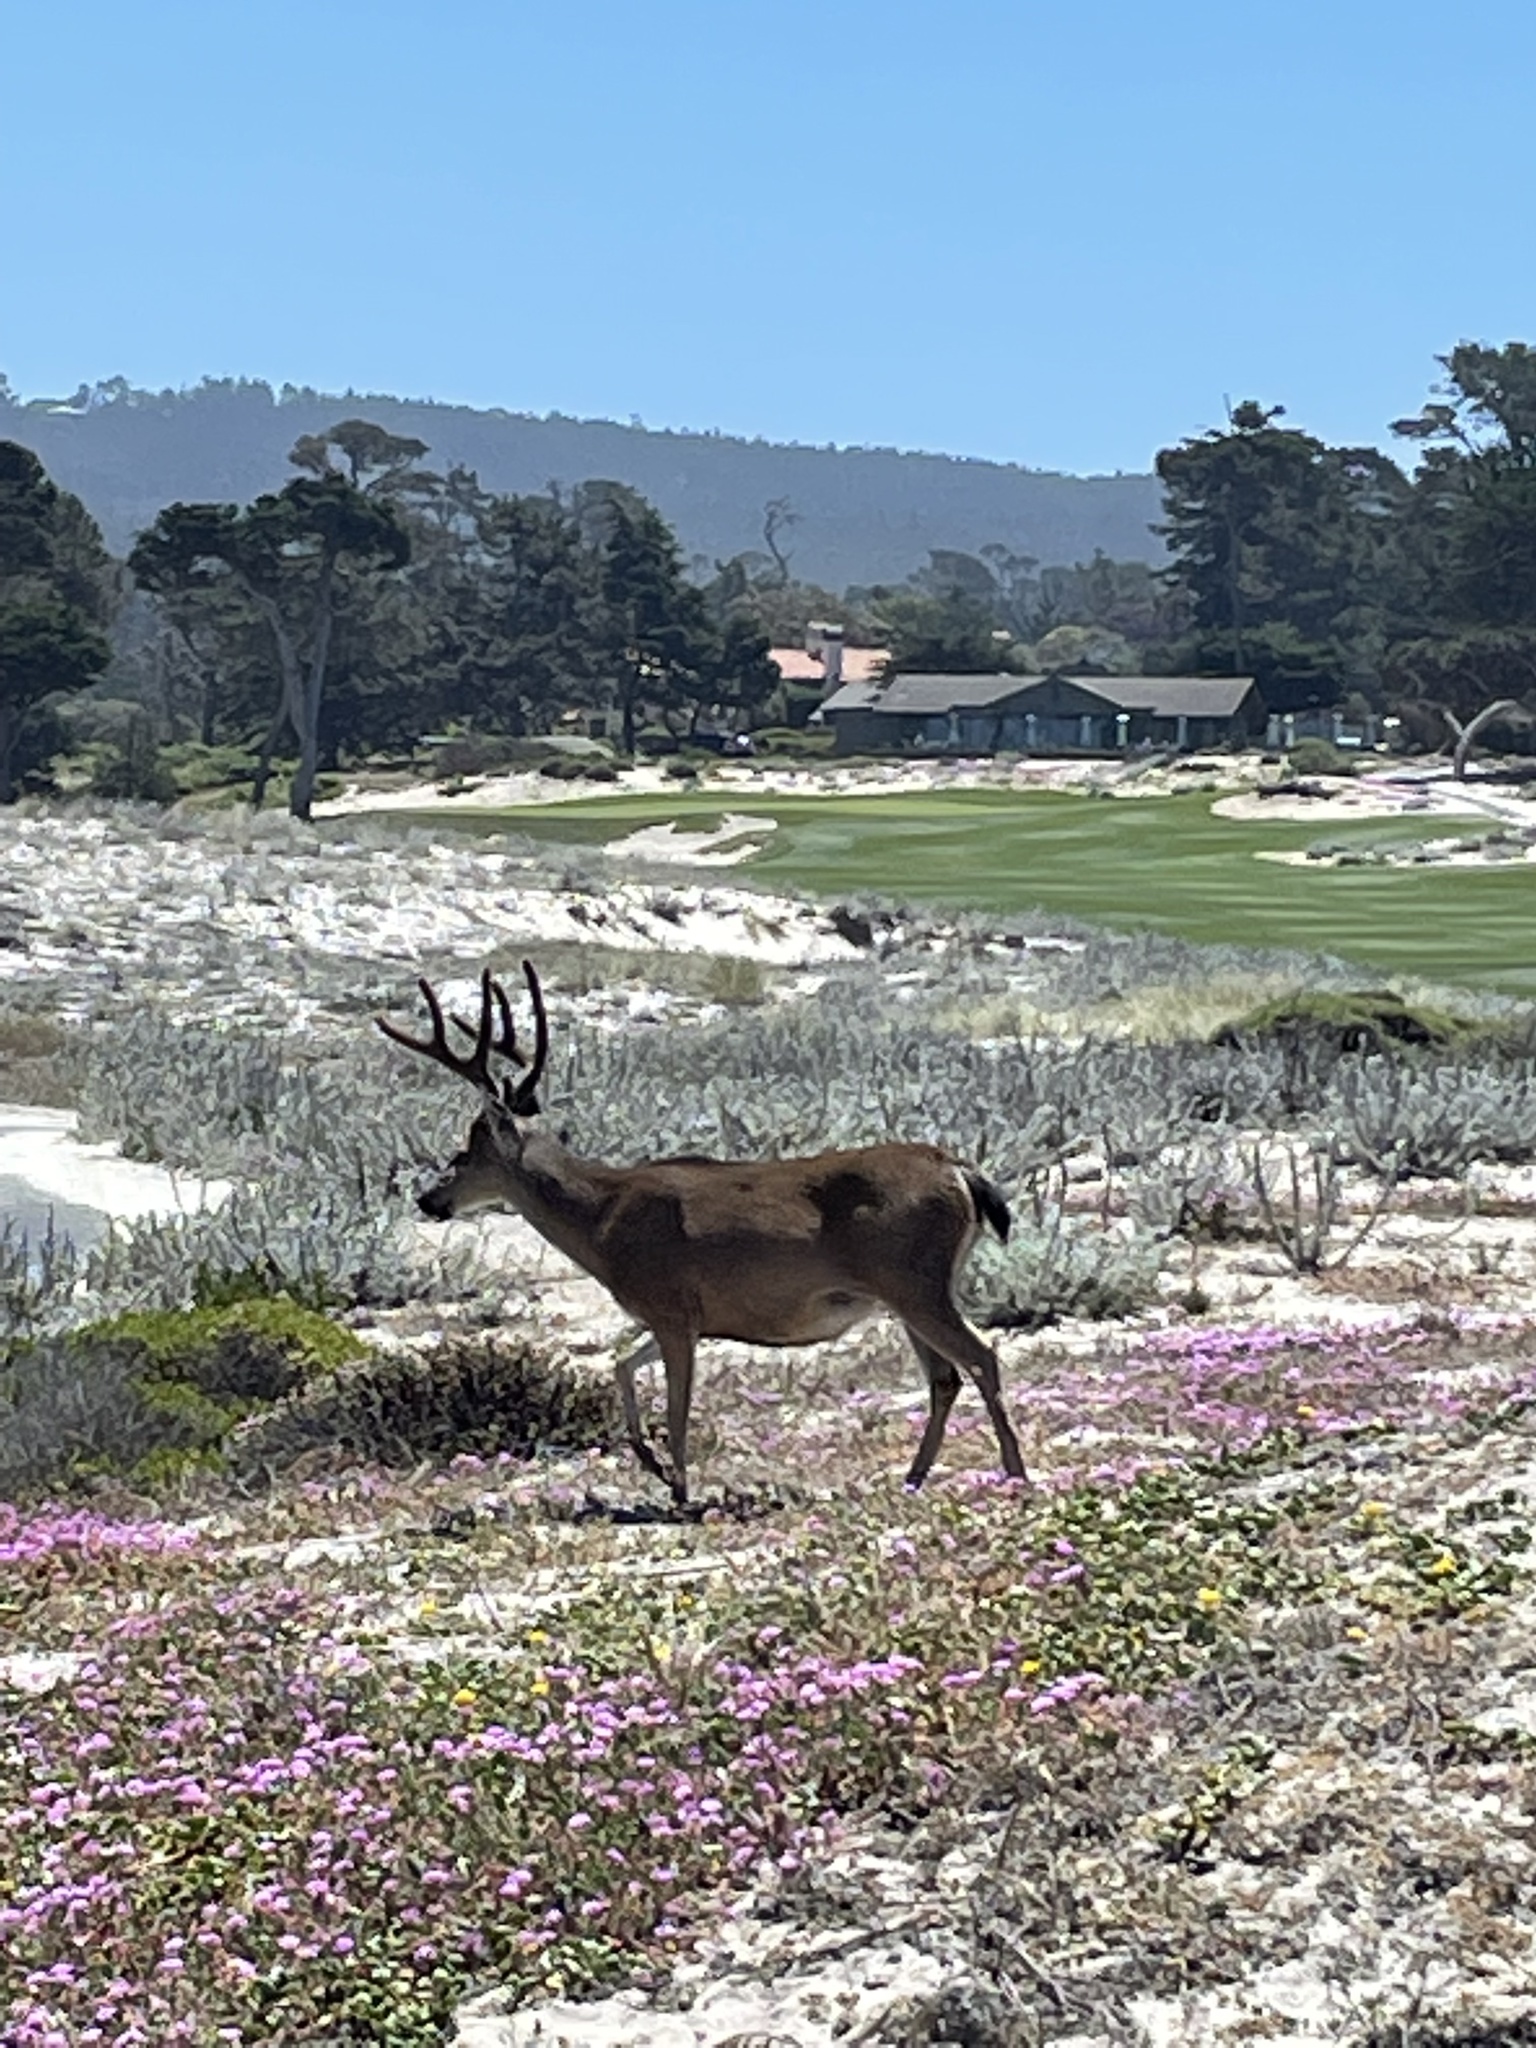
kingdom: Animalia
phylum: Chordata
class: Mammalia
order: Artiodactyla
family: Cervidae
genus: Odocoileus
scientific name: Odocoileus hemionus
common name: Mule deer
